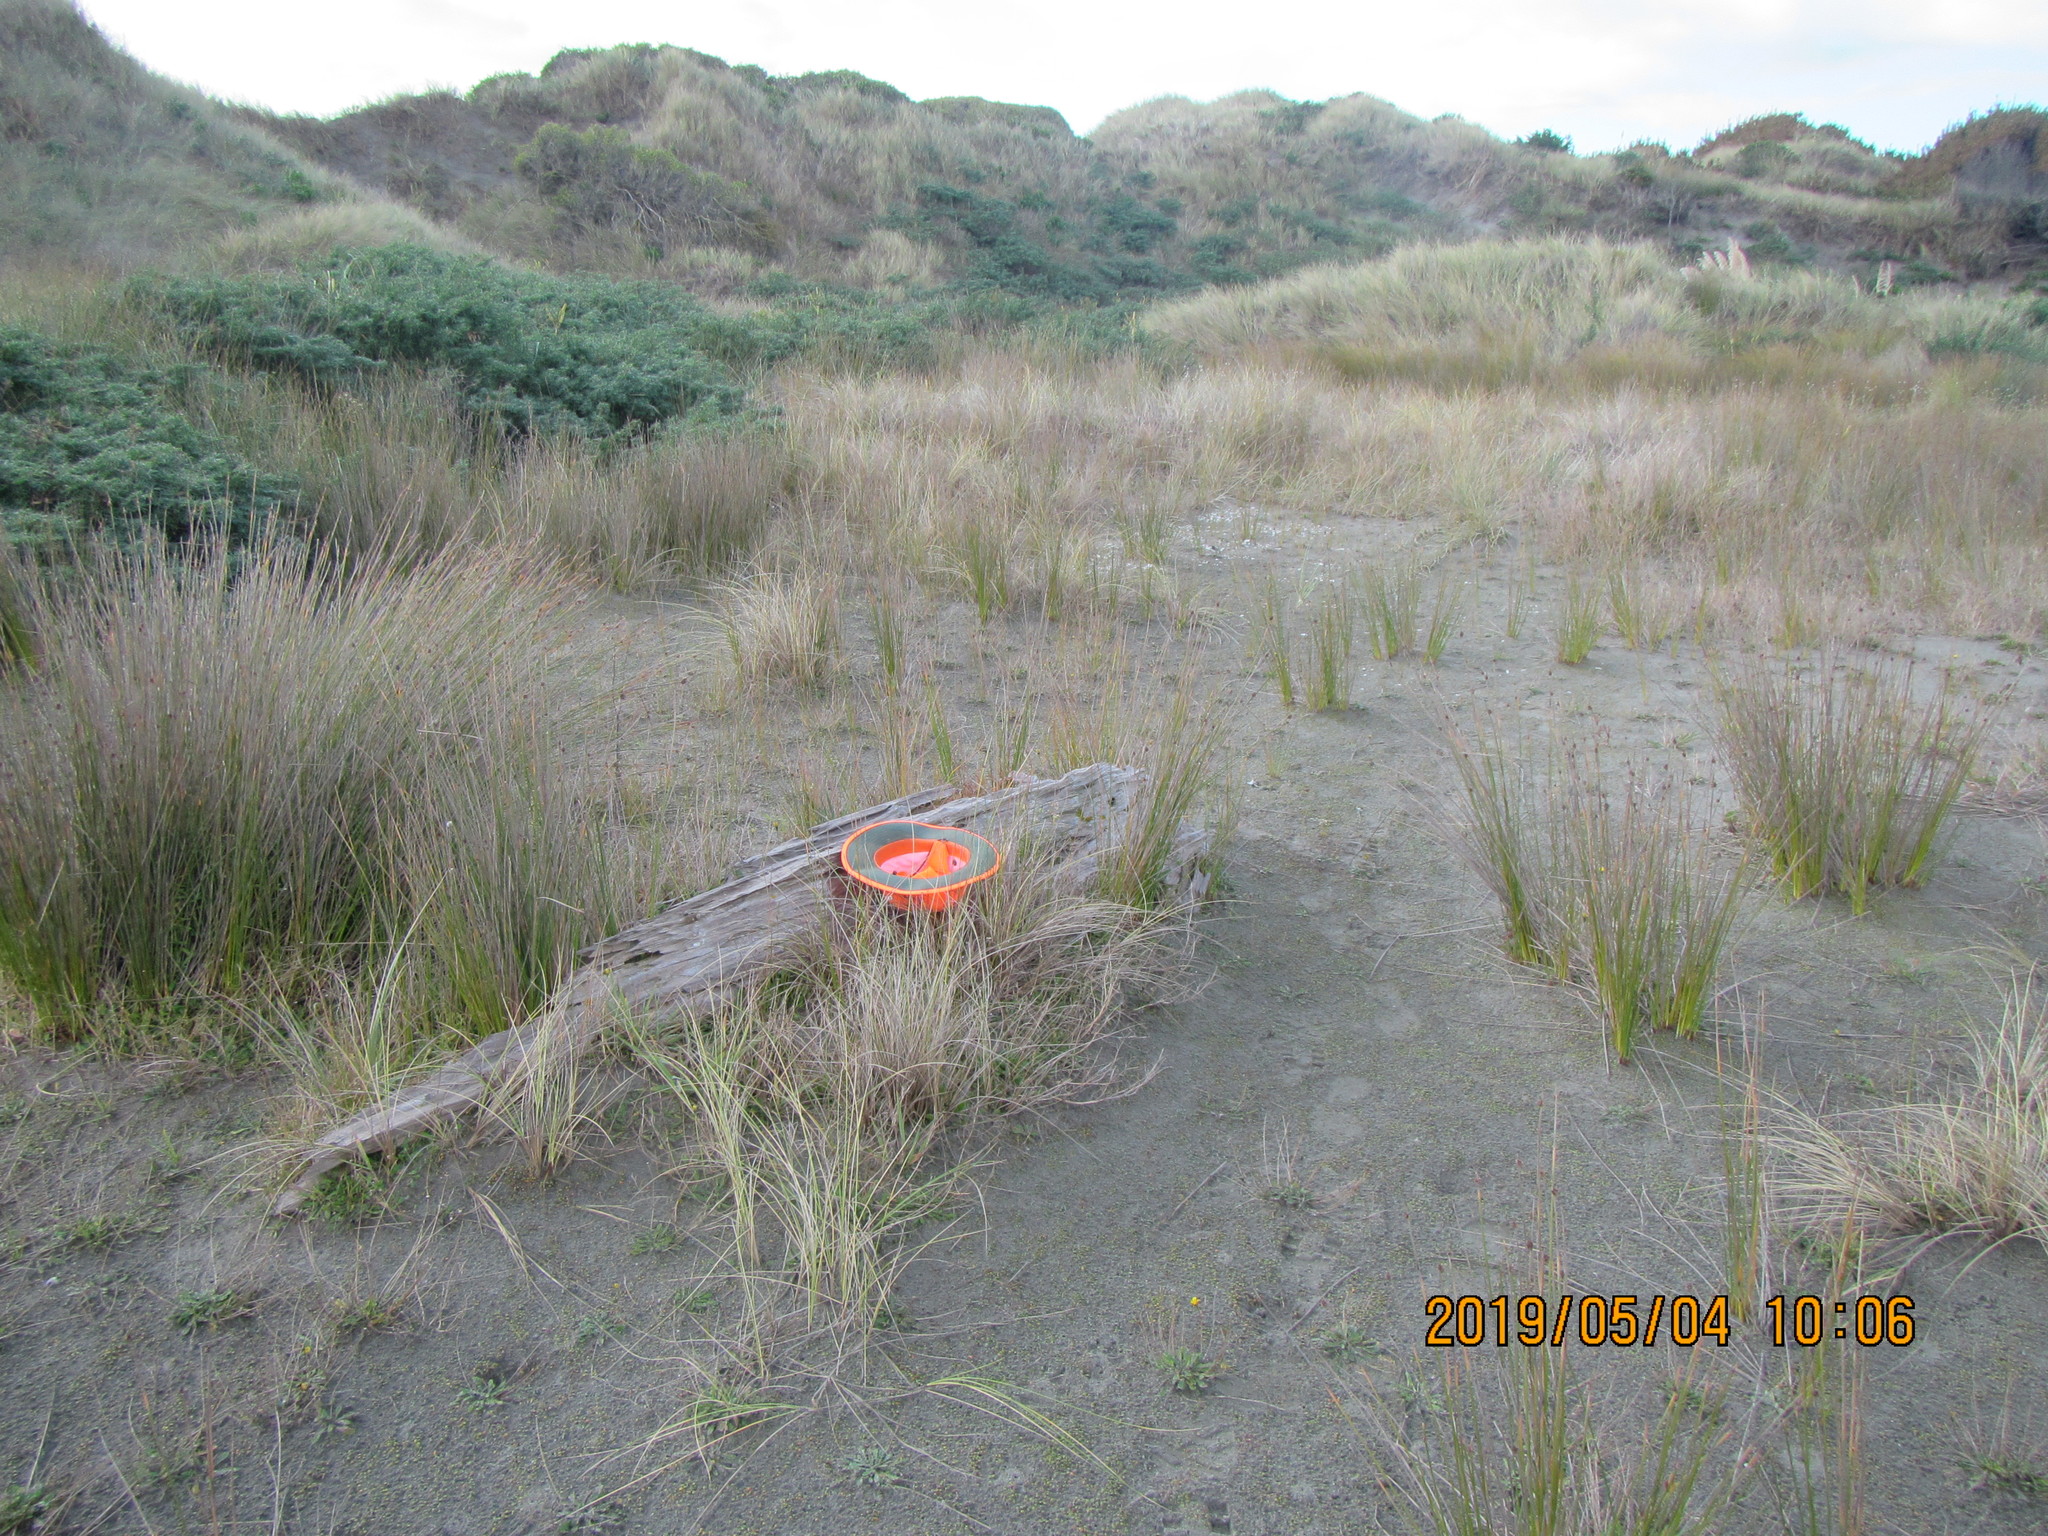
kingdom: Plantae
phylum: Tracheophyta
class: Magnoliopsida
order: Gentianales
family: Rubiaceae
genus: Coprosma
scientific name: Coprosma acerosa
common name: Sand coprosma
